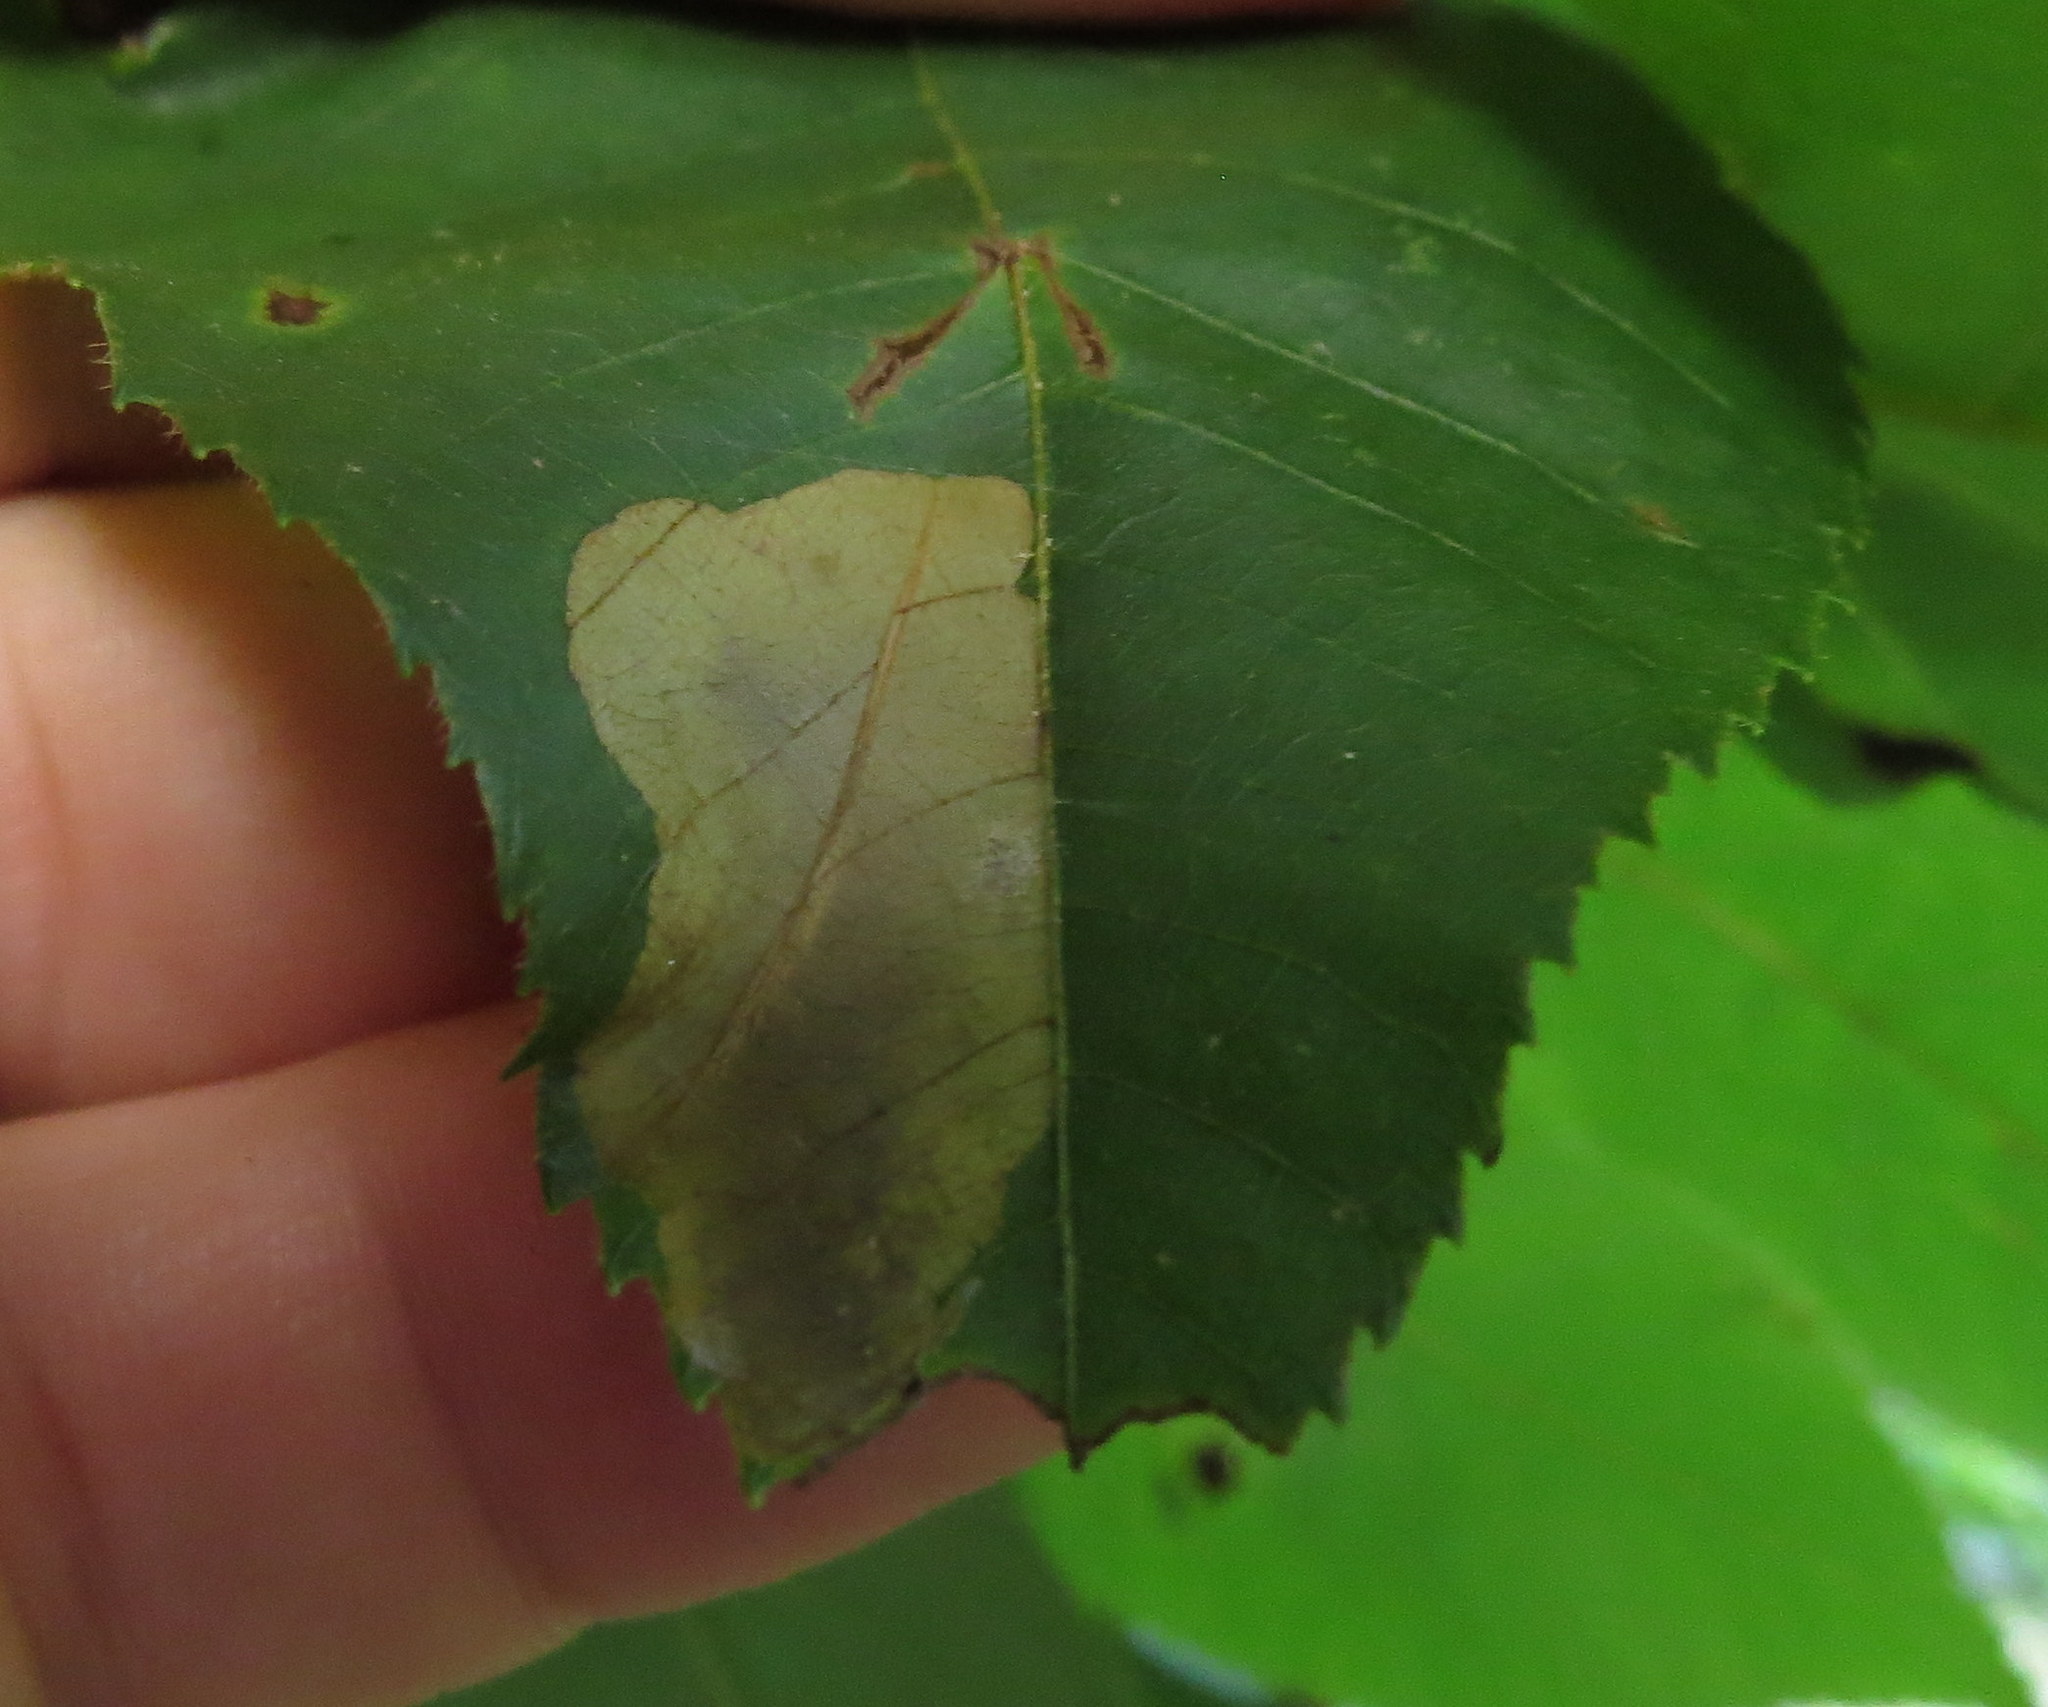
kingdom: Animalia
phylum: Arthropoda
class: Insecta
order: Lepidoptera
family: Gracillariidae
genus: Cameraria
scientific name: Cameraria caryaefoliella
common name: Pecan leafminer moth
